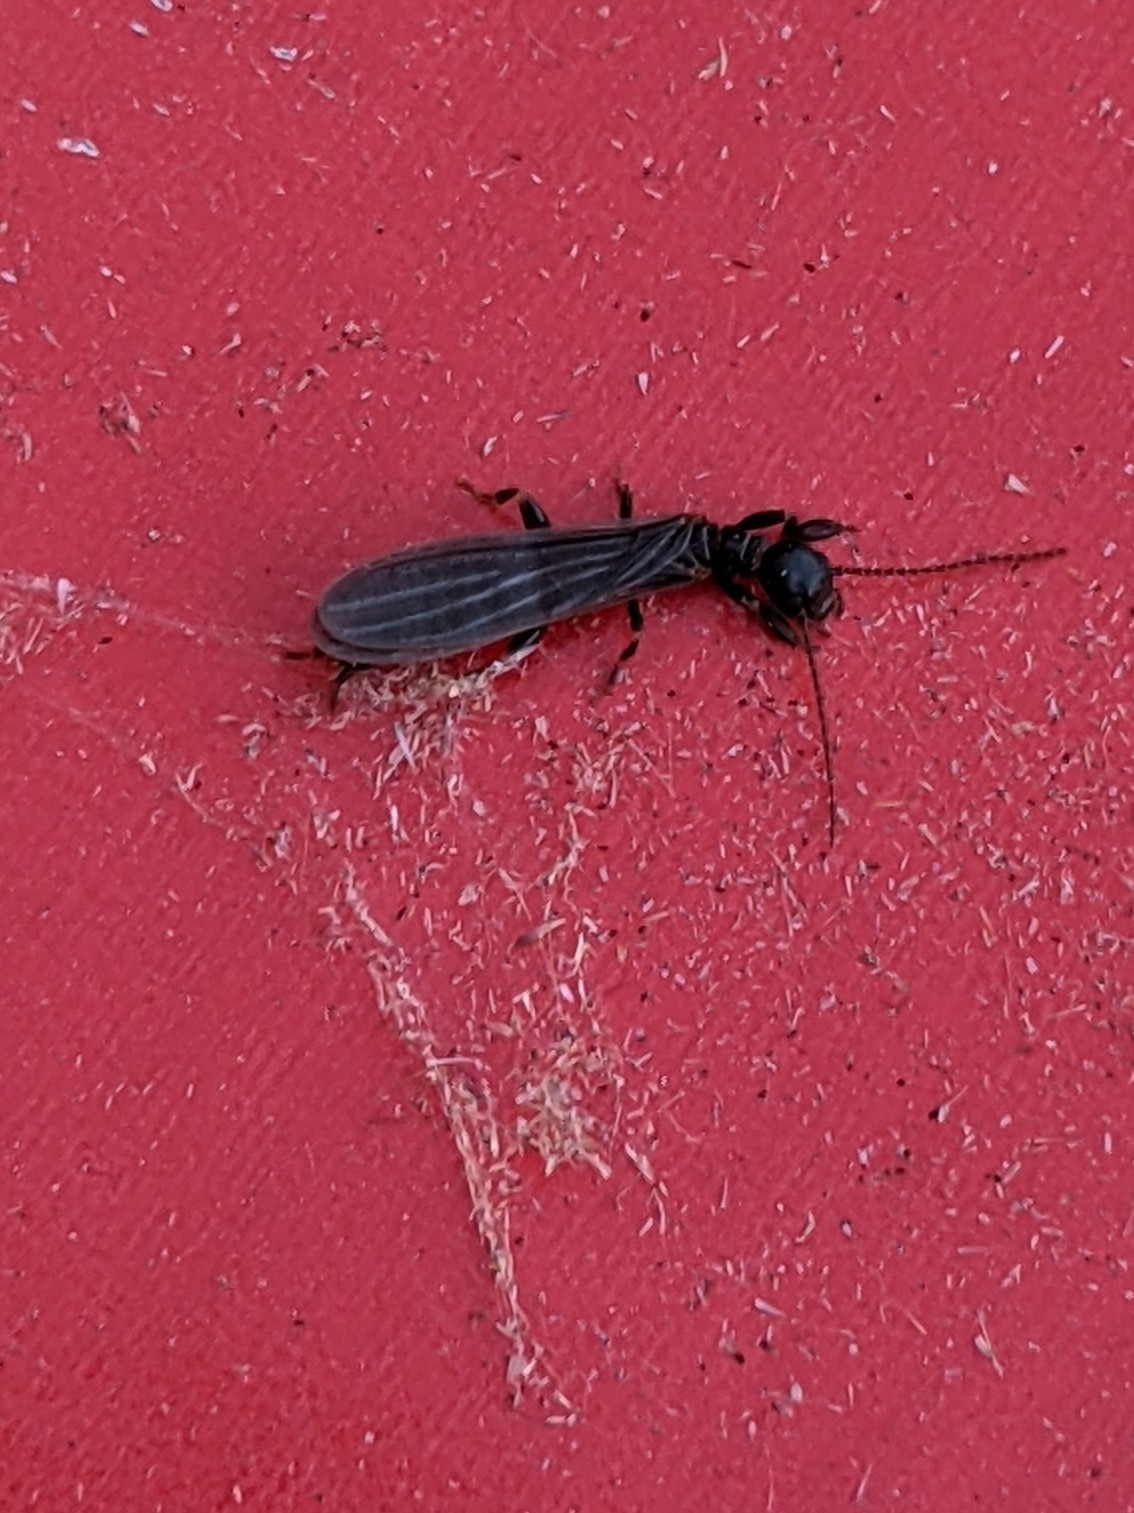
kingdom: Animalia
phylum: Arthropoda
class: Insecta
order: Embioptera
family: Oligotomidae
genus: Oligotoma
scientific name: Oligotoma nigra
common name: Black webspinner
